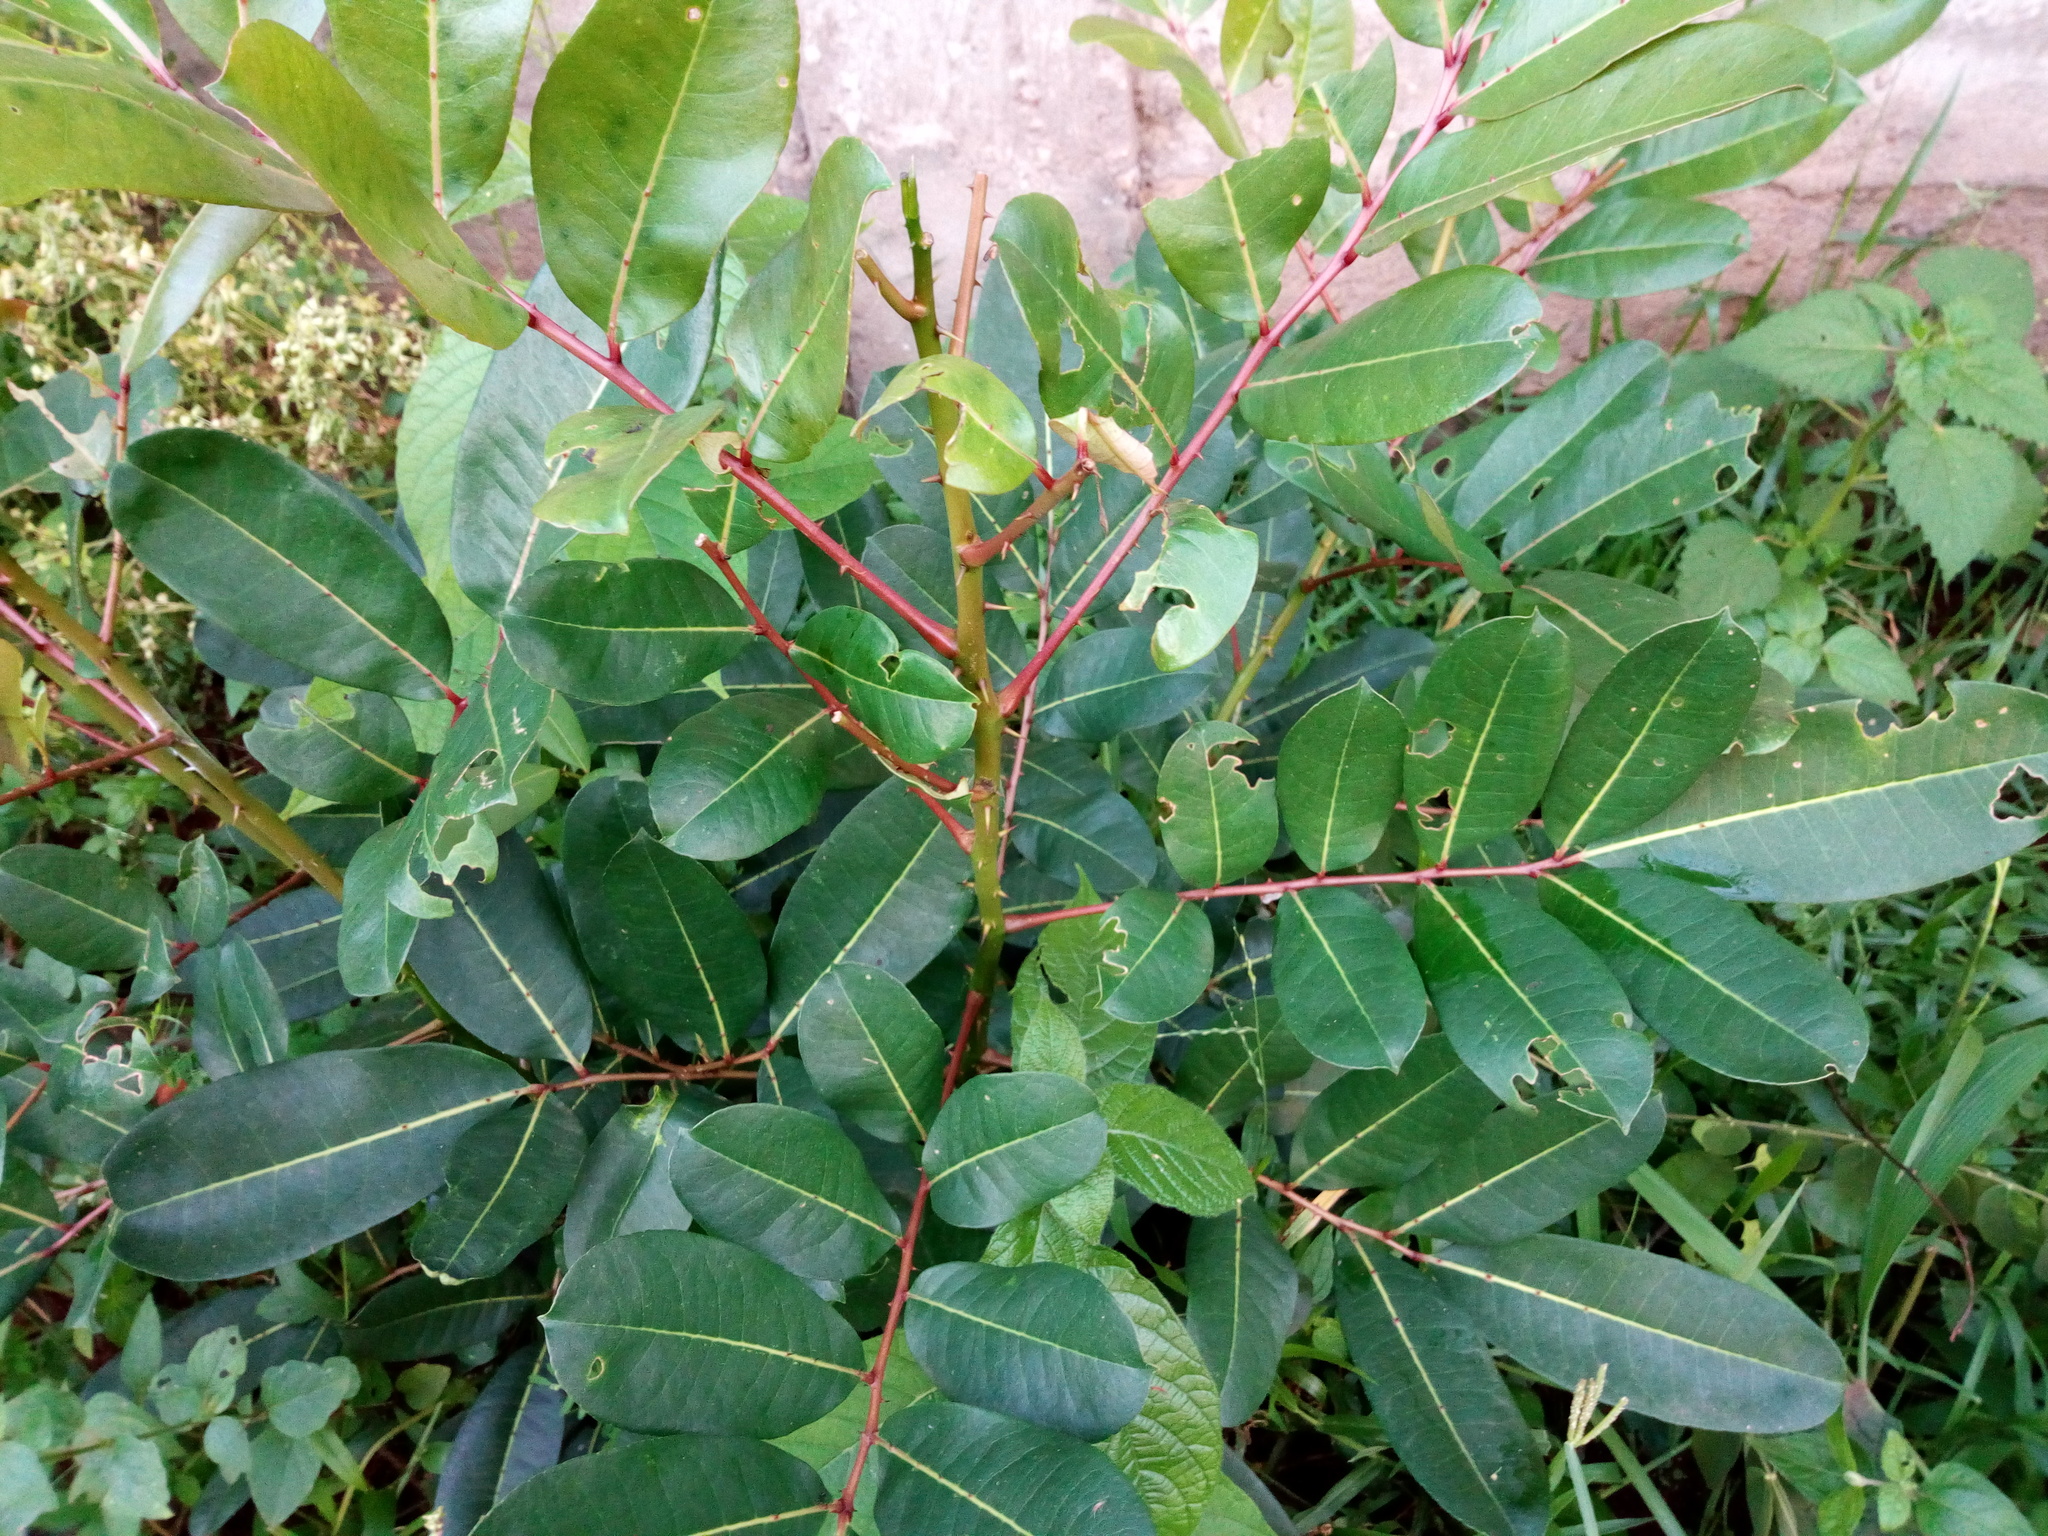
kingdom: Plantae
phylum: Tracheophyta
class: Magnoliopsida
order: Sapindales
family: Rutaceae
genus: Zanthoxylum
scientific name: Zanthoxylum zanthoxyloides
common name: Senegal prickly-ash
